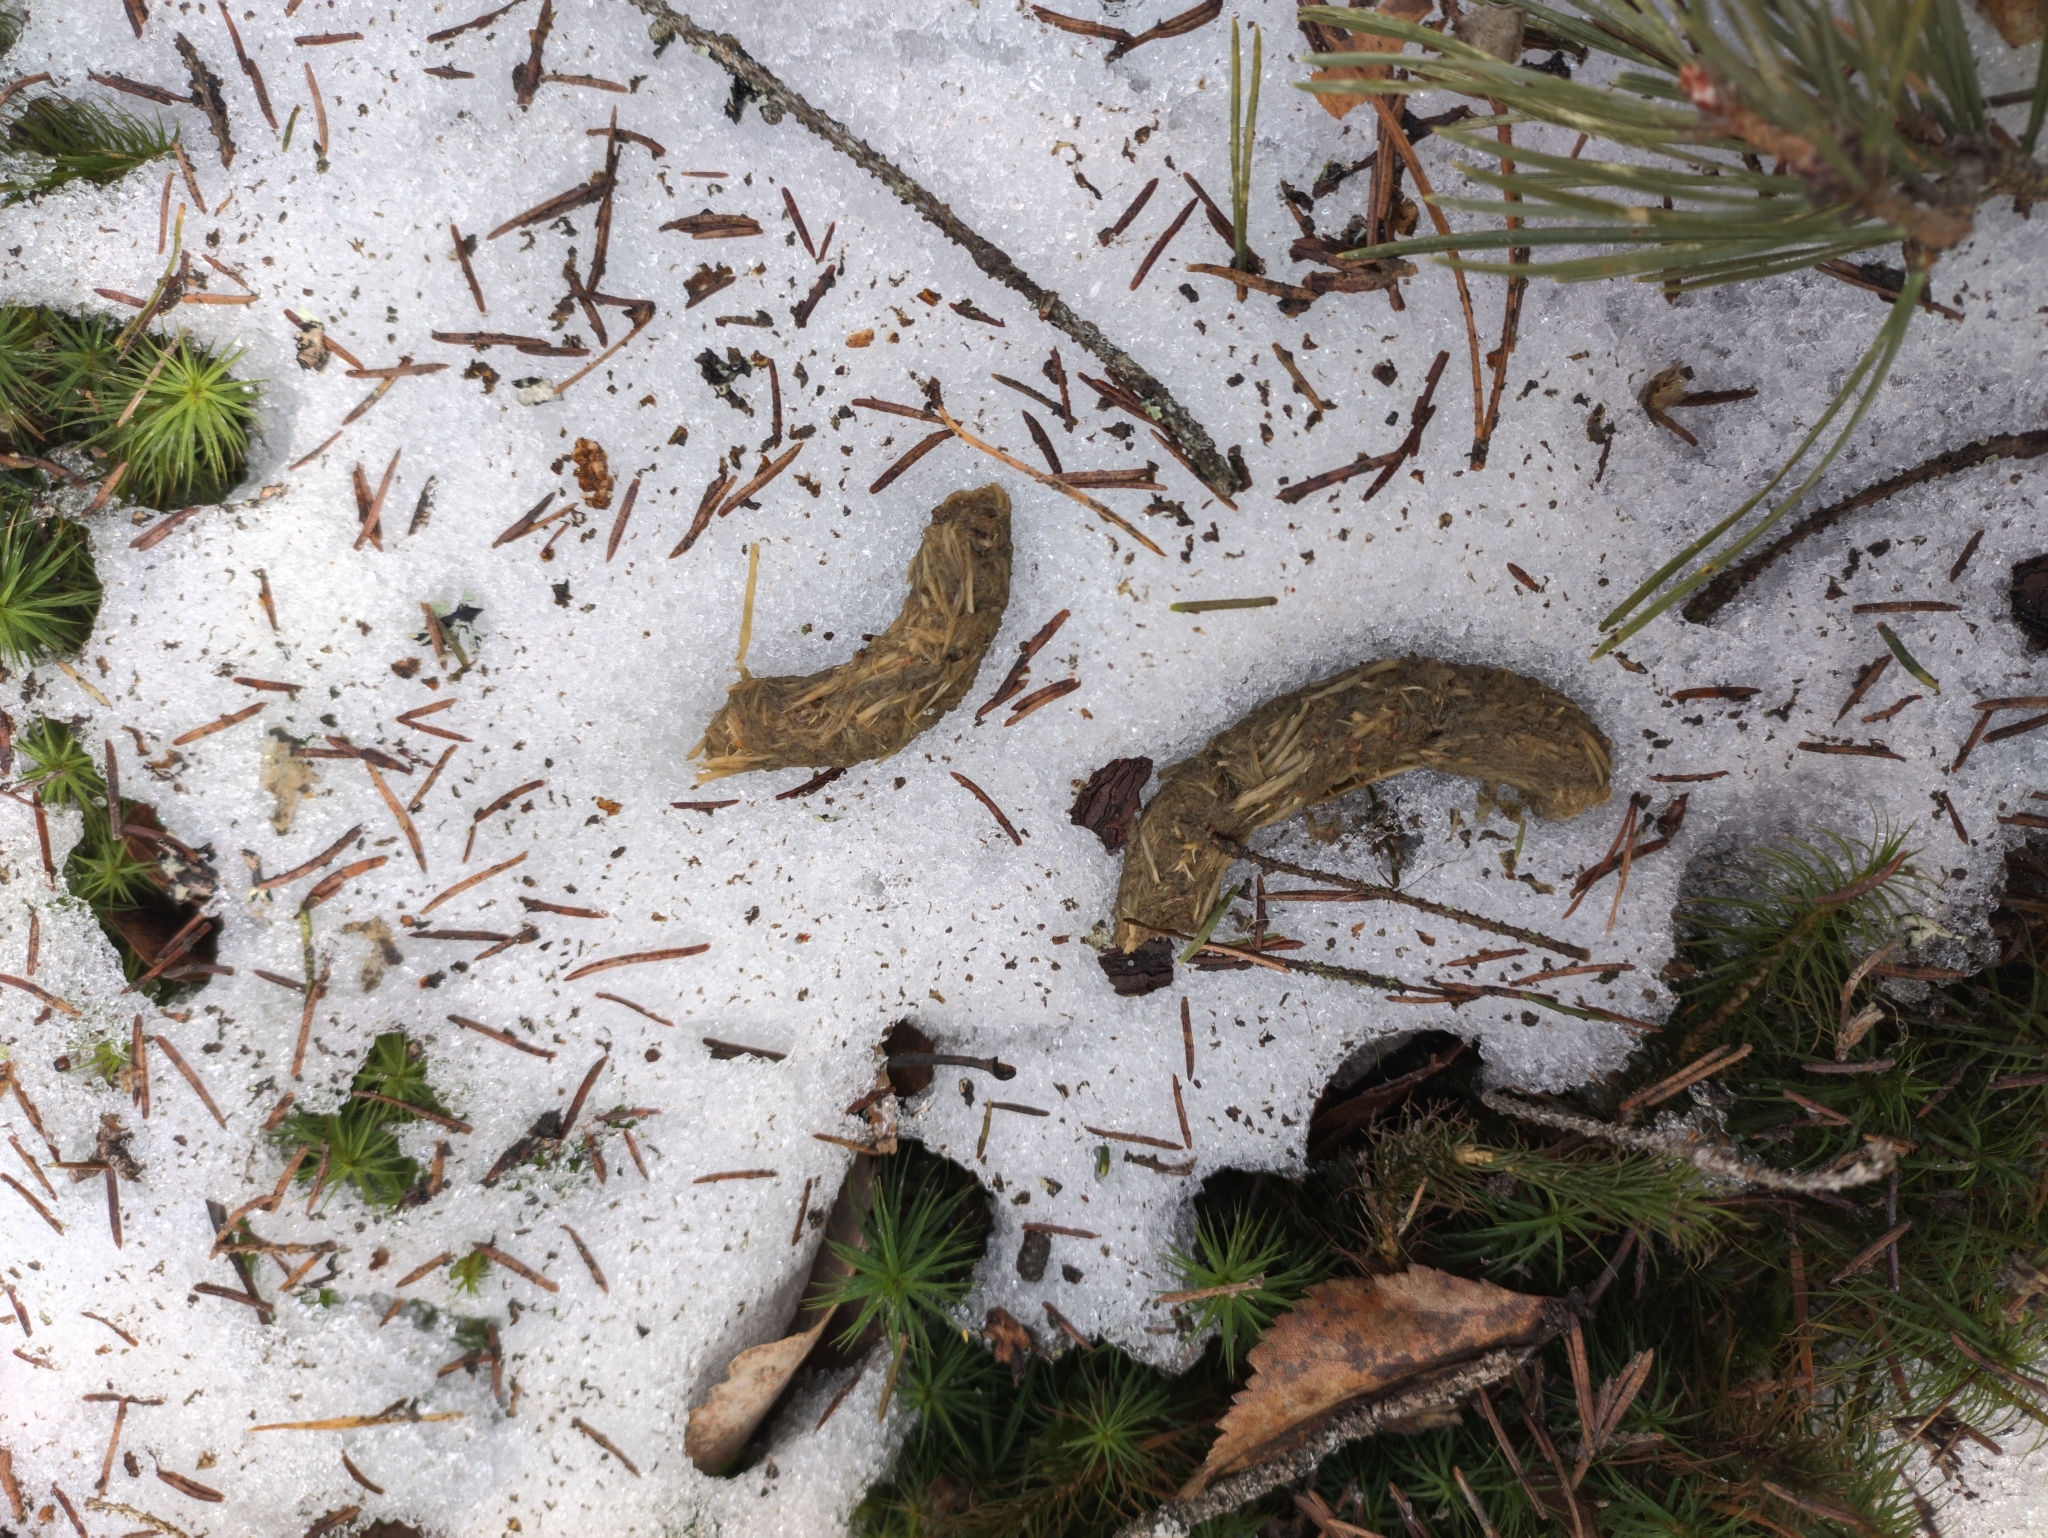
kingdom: Animalia
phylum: Chordata
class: Aves
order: Galliformes
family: Phasianidae
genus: Tetrao
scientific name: Tetrao urogallus
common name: Western capercaillie
